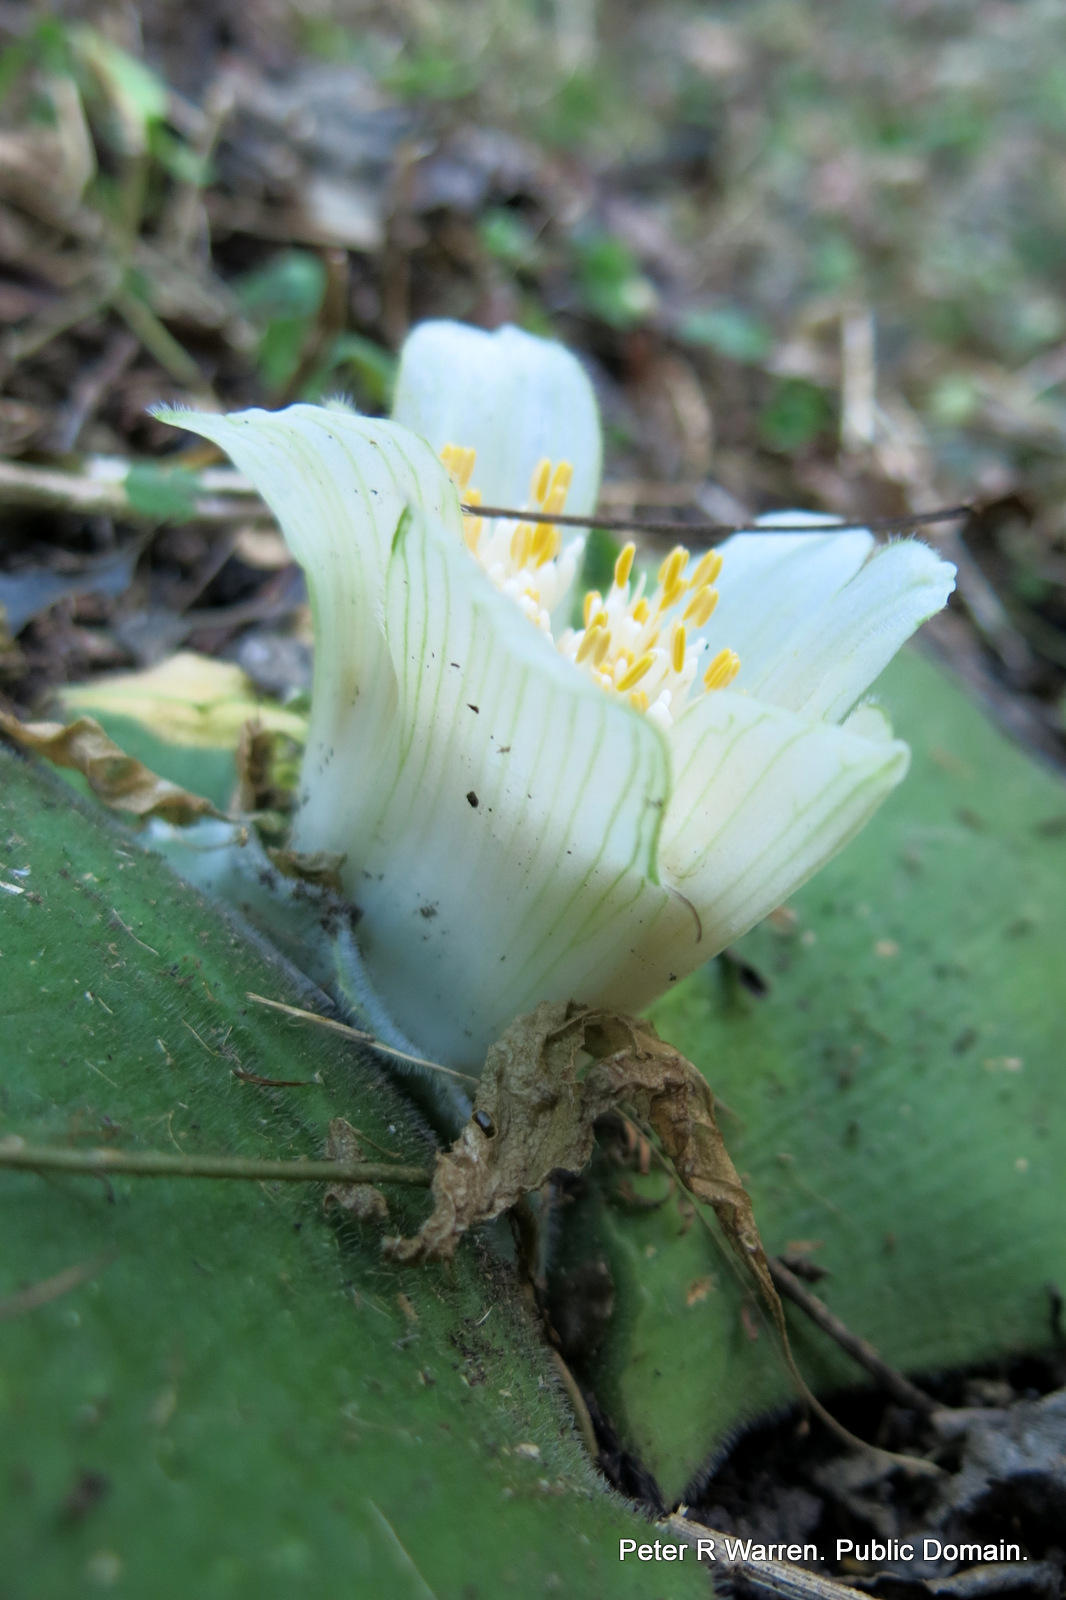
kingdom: Plantae
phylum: Tracheophyta
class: Liliopsida
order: Asparagales
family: Amaryllidaceae
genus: Haemanthus
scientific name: Haemanthus deformis
